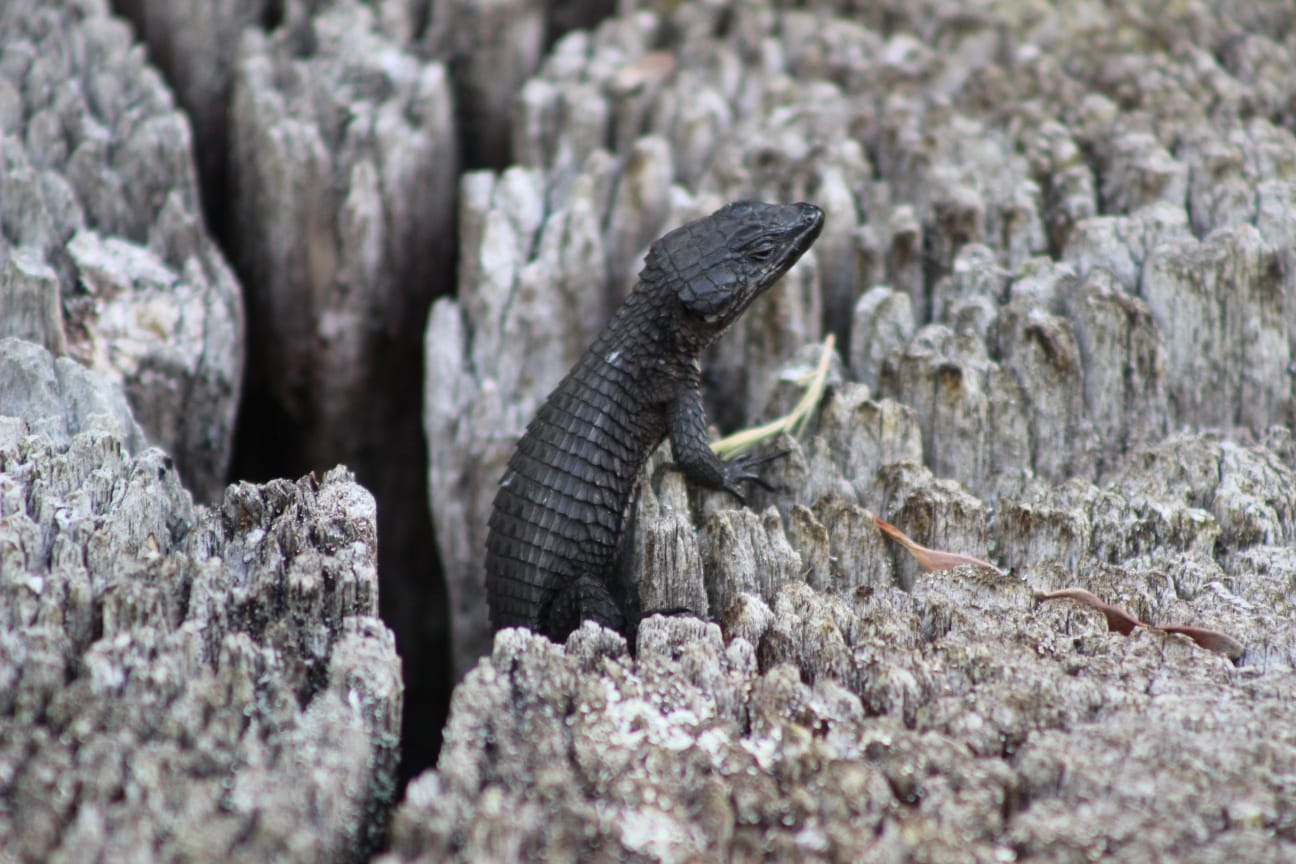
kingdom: Animalia
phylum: Chordata
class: Squamata
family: Cordylidae
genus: Cordylus
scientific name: Cordylus niger
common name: Black girdled lizard
